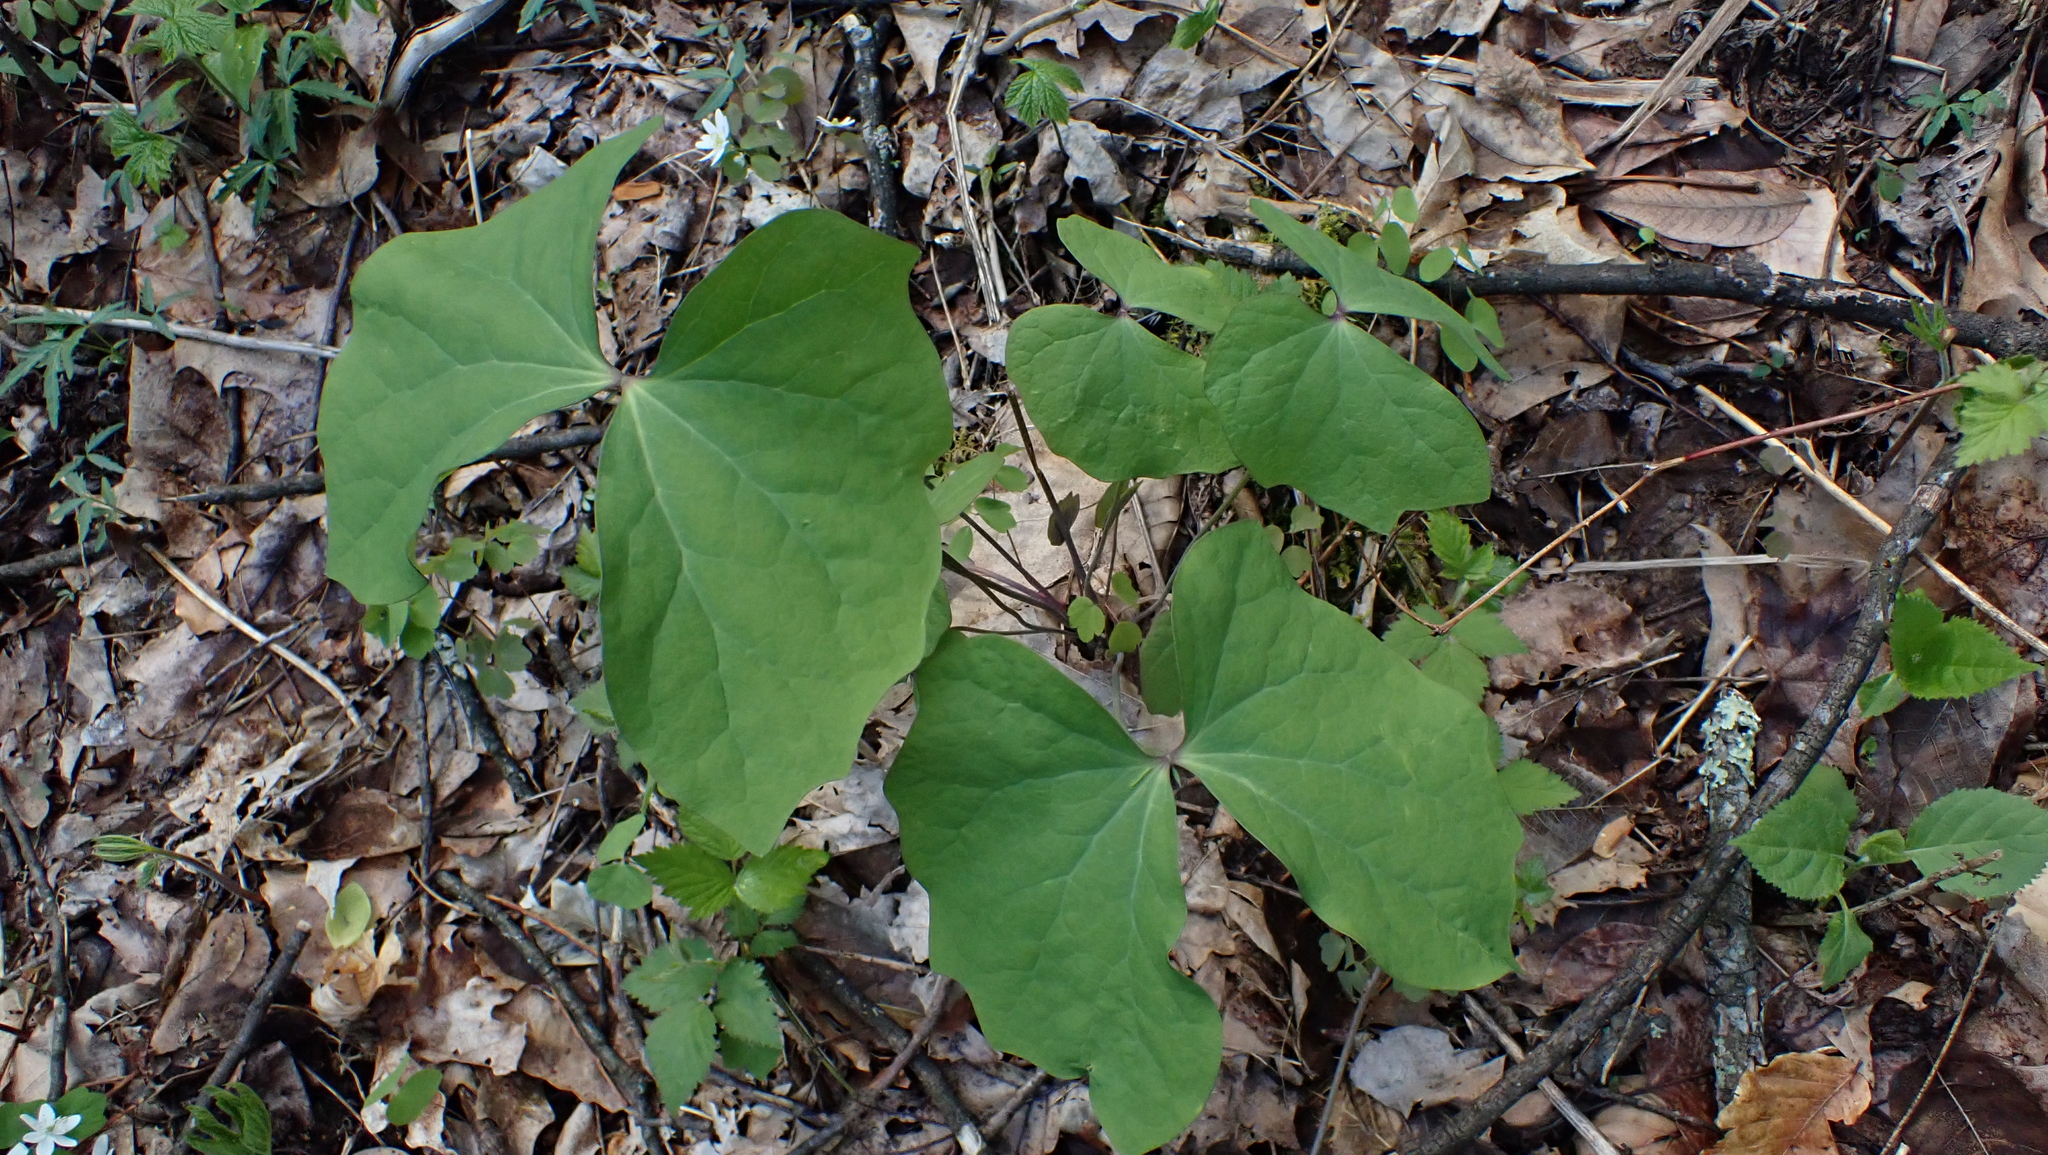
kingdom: Plantae
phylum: Tracheophyta
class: Magnoliopsida
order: Ranunculales
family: Berberidaceae
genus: Jeffersonia
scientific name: Jeffersonia diphylla
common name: Rheumatism-root
